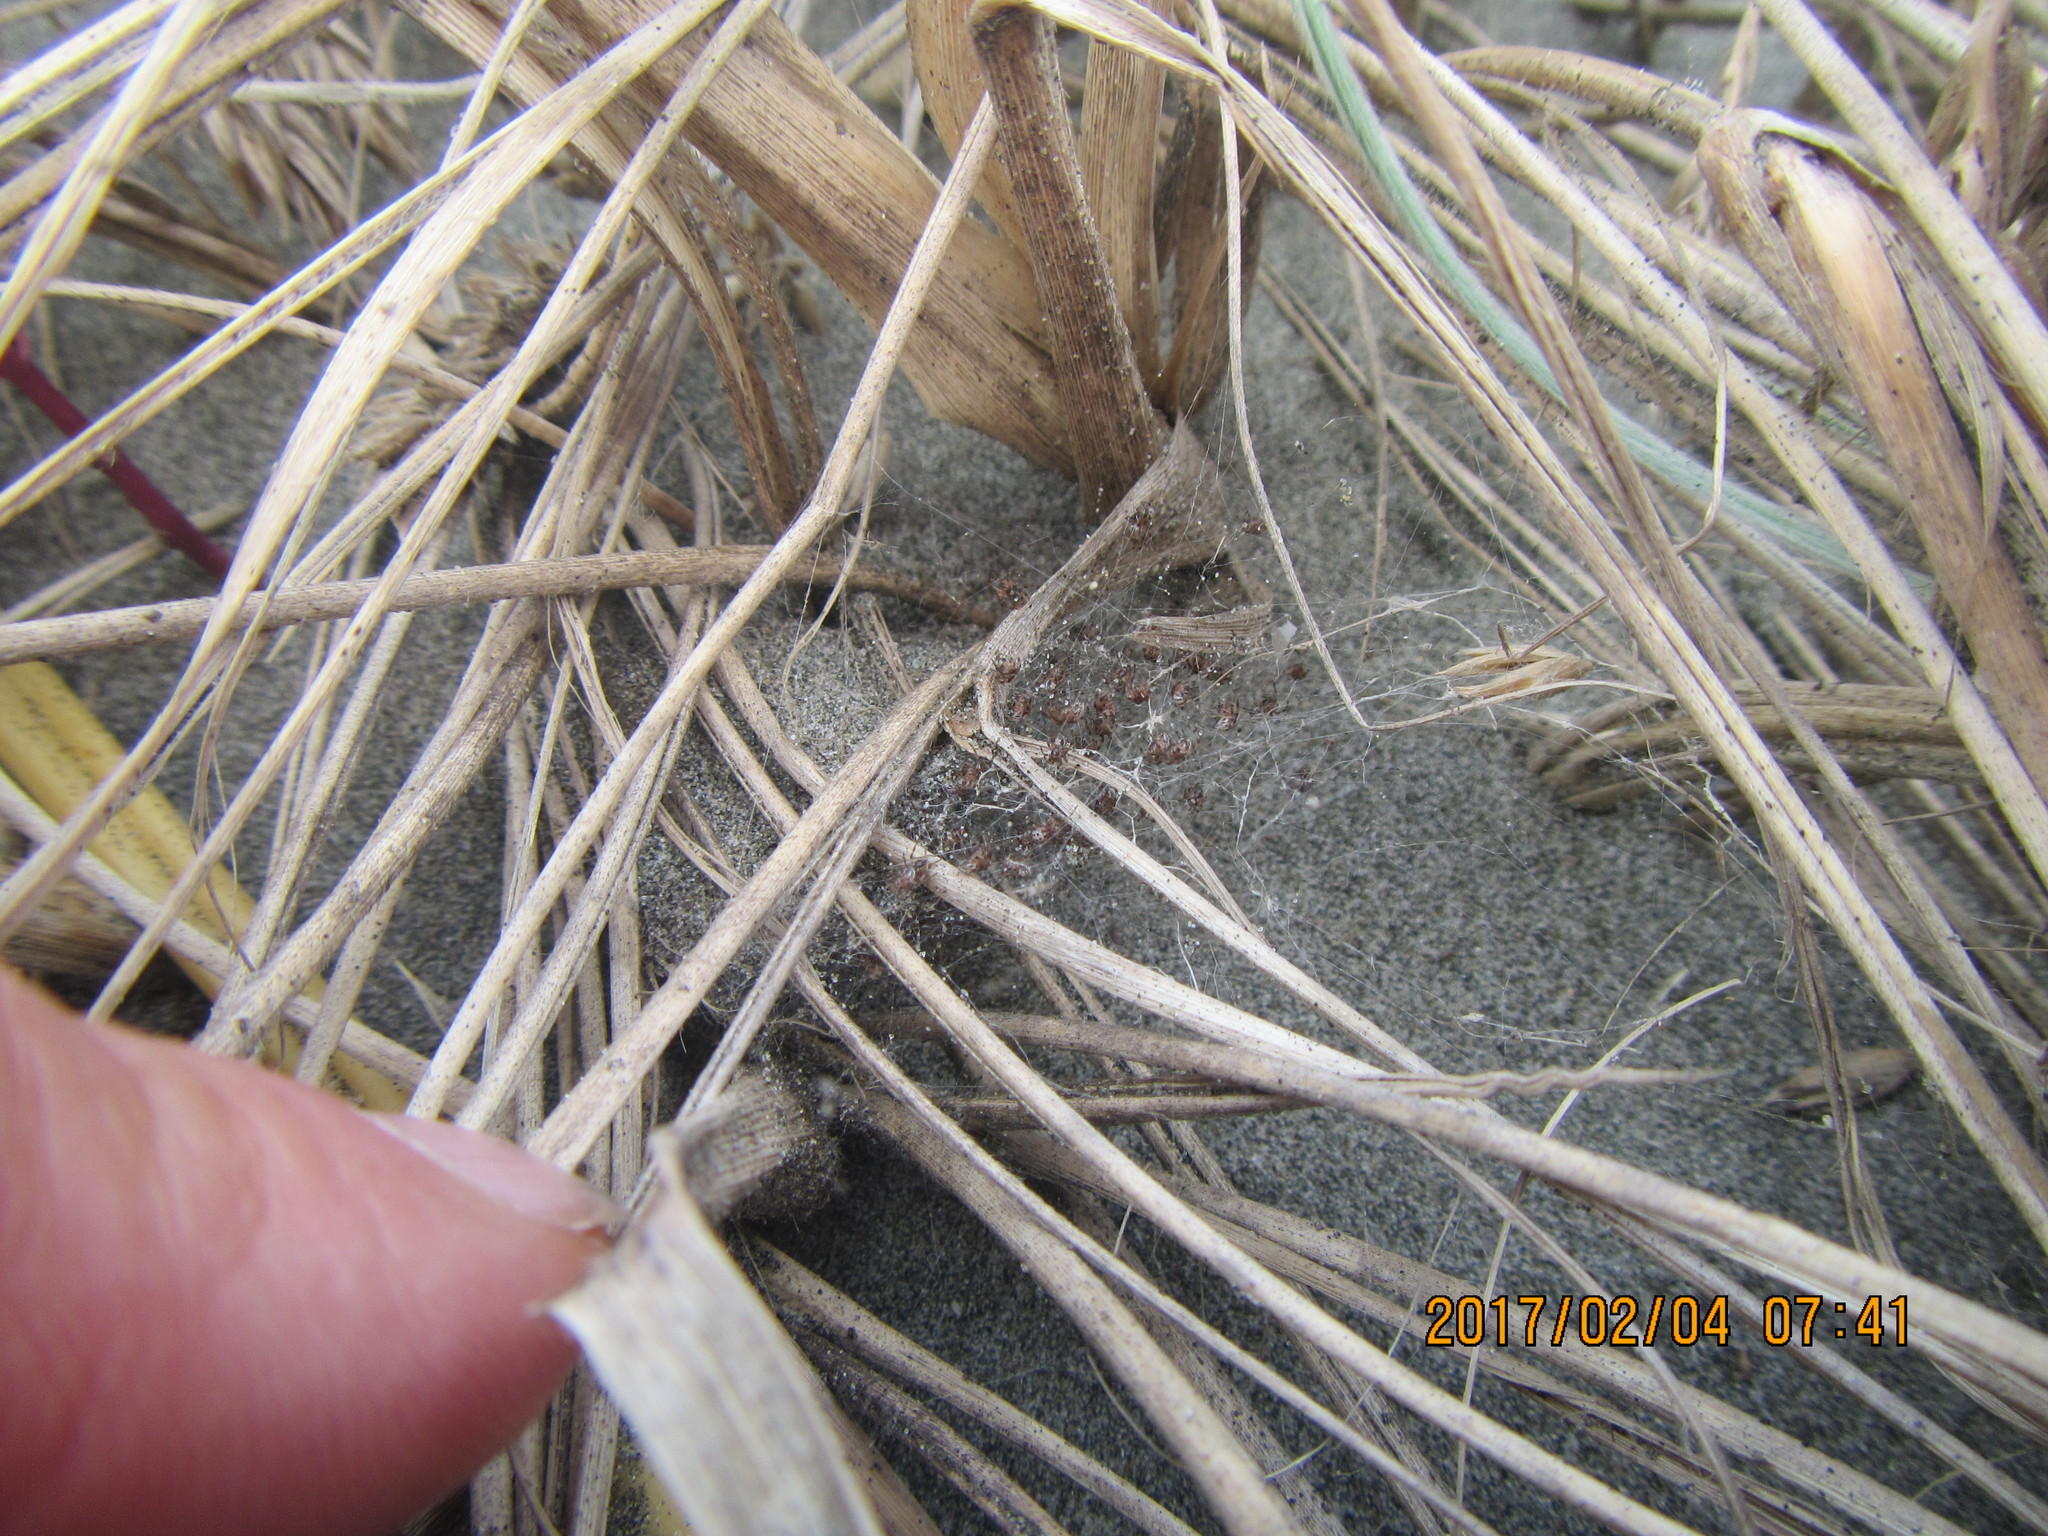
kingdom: Animalia
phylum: Arthropoda
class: Arachnida
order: Araneae
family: Theridiidae
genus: Latrodectus
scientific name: Latrodectus katipo
